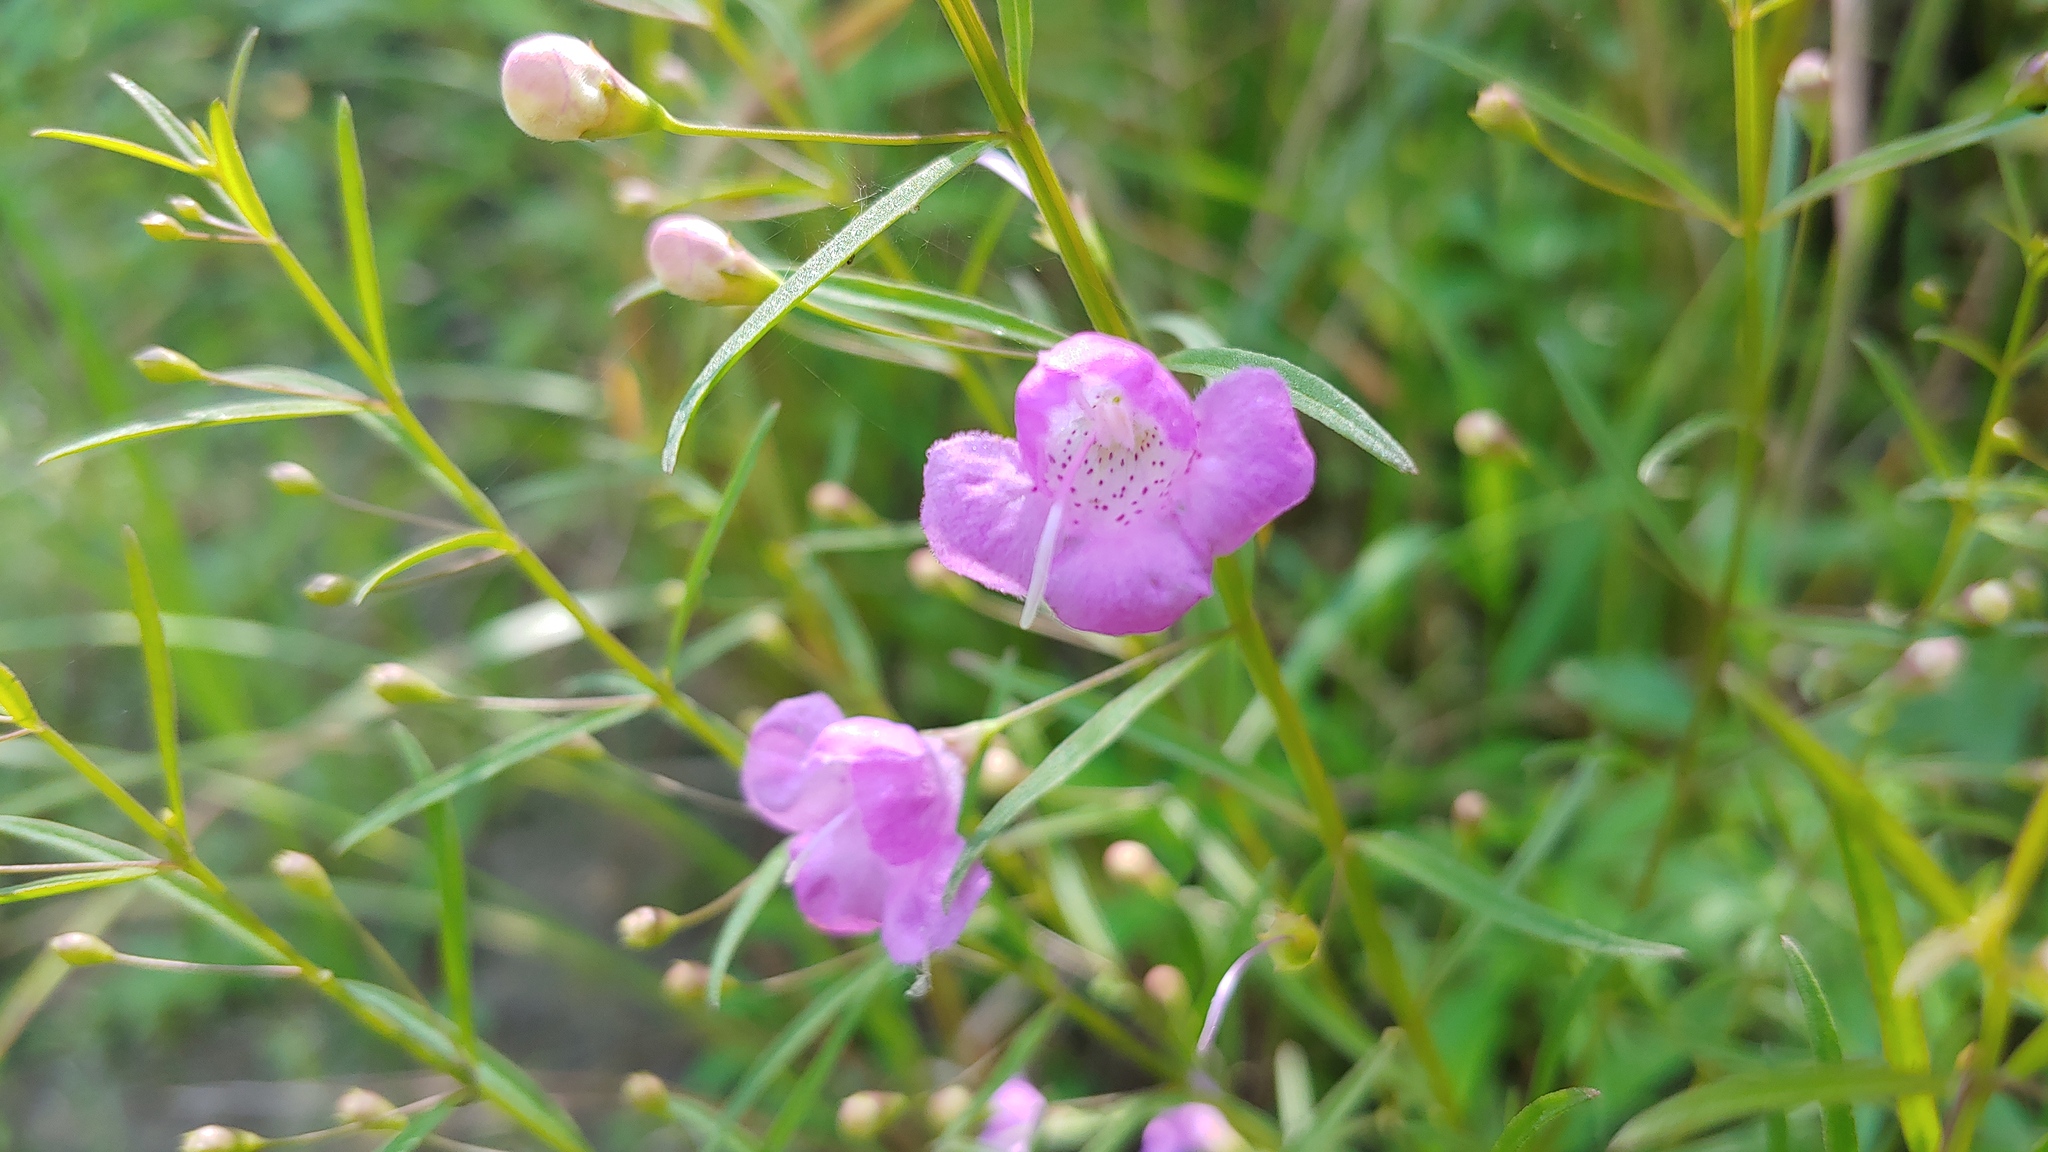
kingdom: Plantae
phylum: Tracheophyta
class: Magnoliopsida
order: Lamiales
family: Orobanchaceae
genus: Agalinis
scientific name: Agalinis tenuifolia
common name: Slender agalinis
